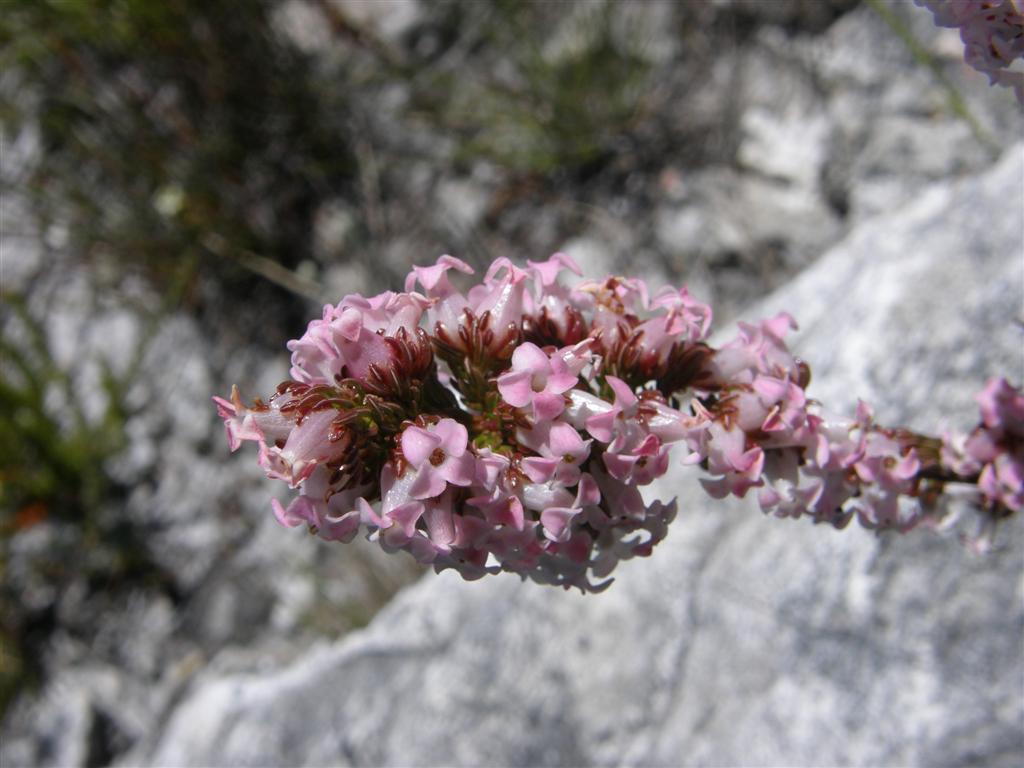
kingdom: Plantae
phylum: Tracheophyta
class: Magnoliopsida
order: Ericales
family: Ericaceae
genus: Erica
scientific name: Erica denticulata
